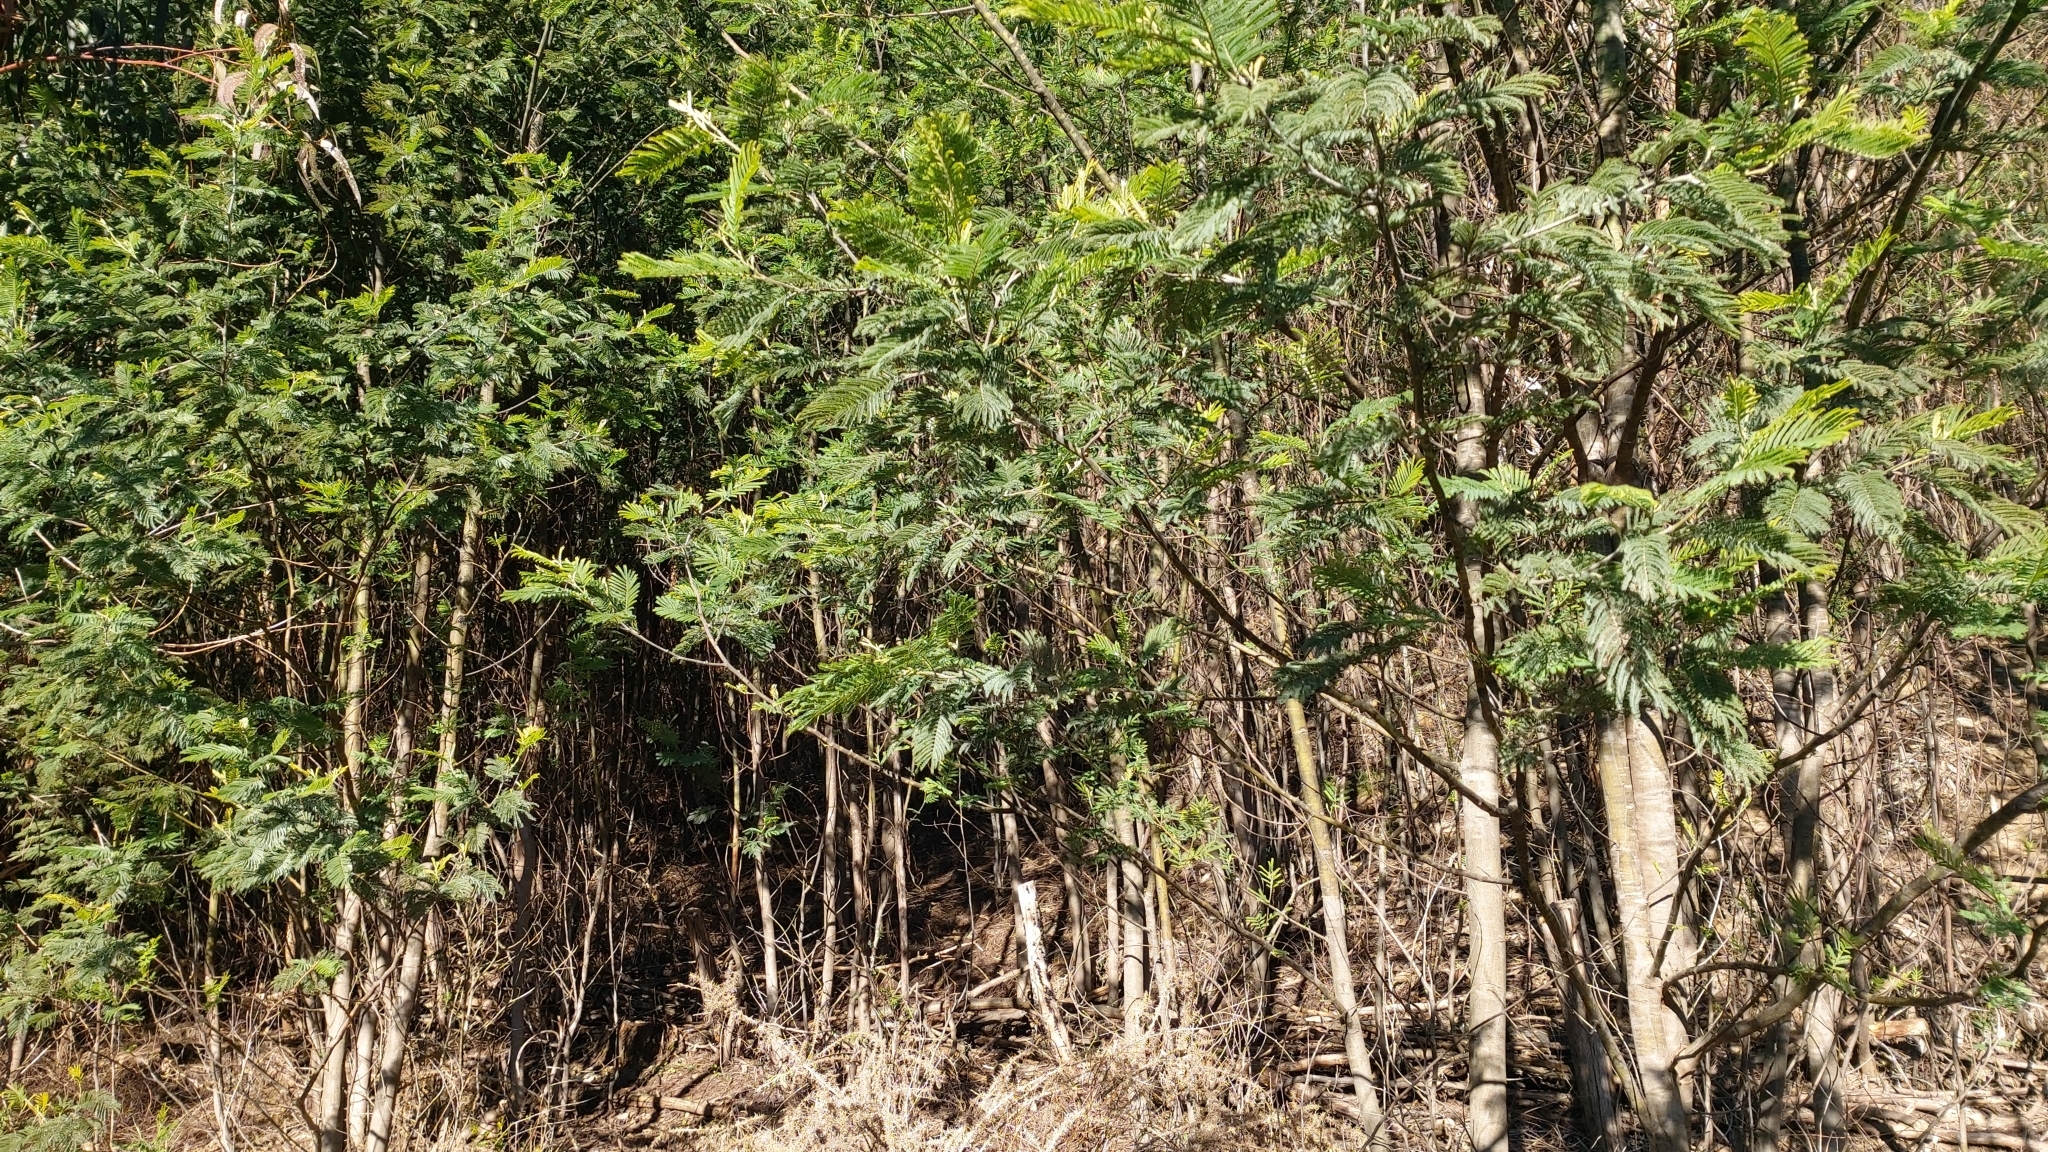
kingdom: Plantae
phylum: Tracheophyta
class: Magnoliopsida
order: Fabales
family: Fabaceae
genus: Acacia
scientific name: Acacia dealbata
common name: Silver wattle
